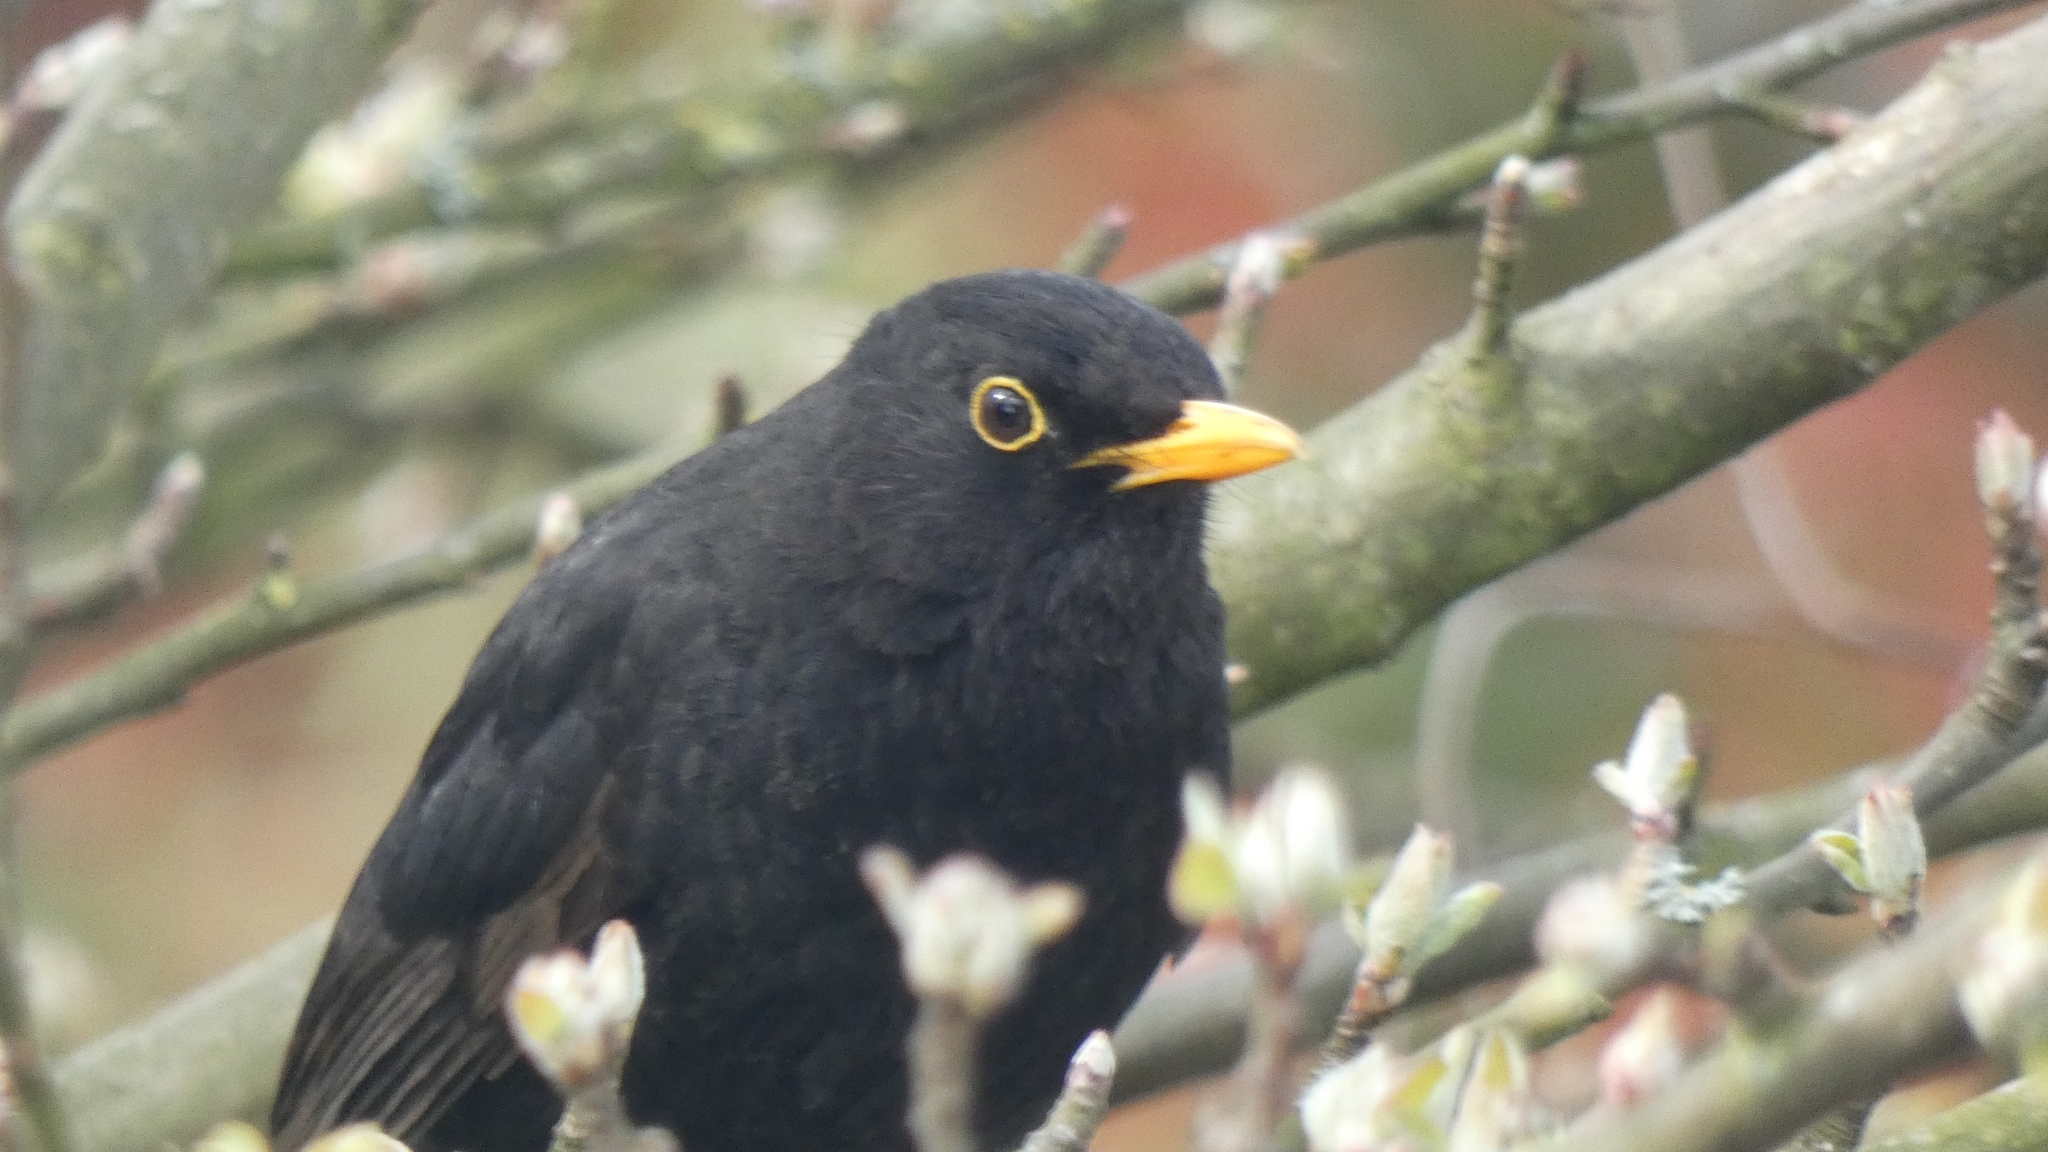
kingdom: Animalia
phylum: Chordata
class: Aves
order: Passeriformes
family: Turdidae
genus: Turdus
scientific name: Turdus merula
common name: Common blackbird
